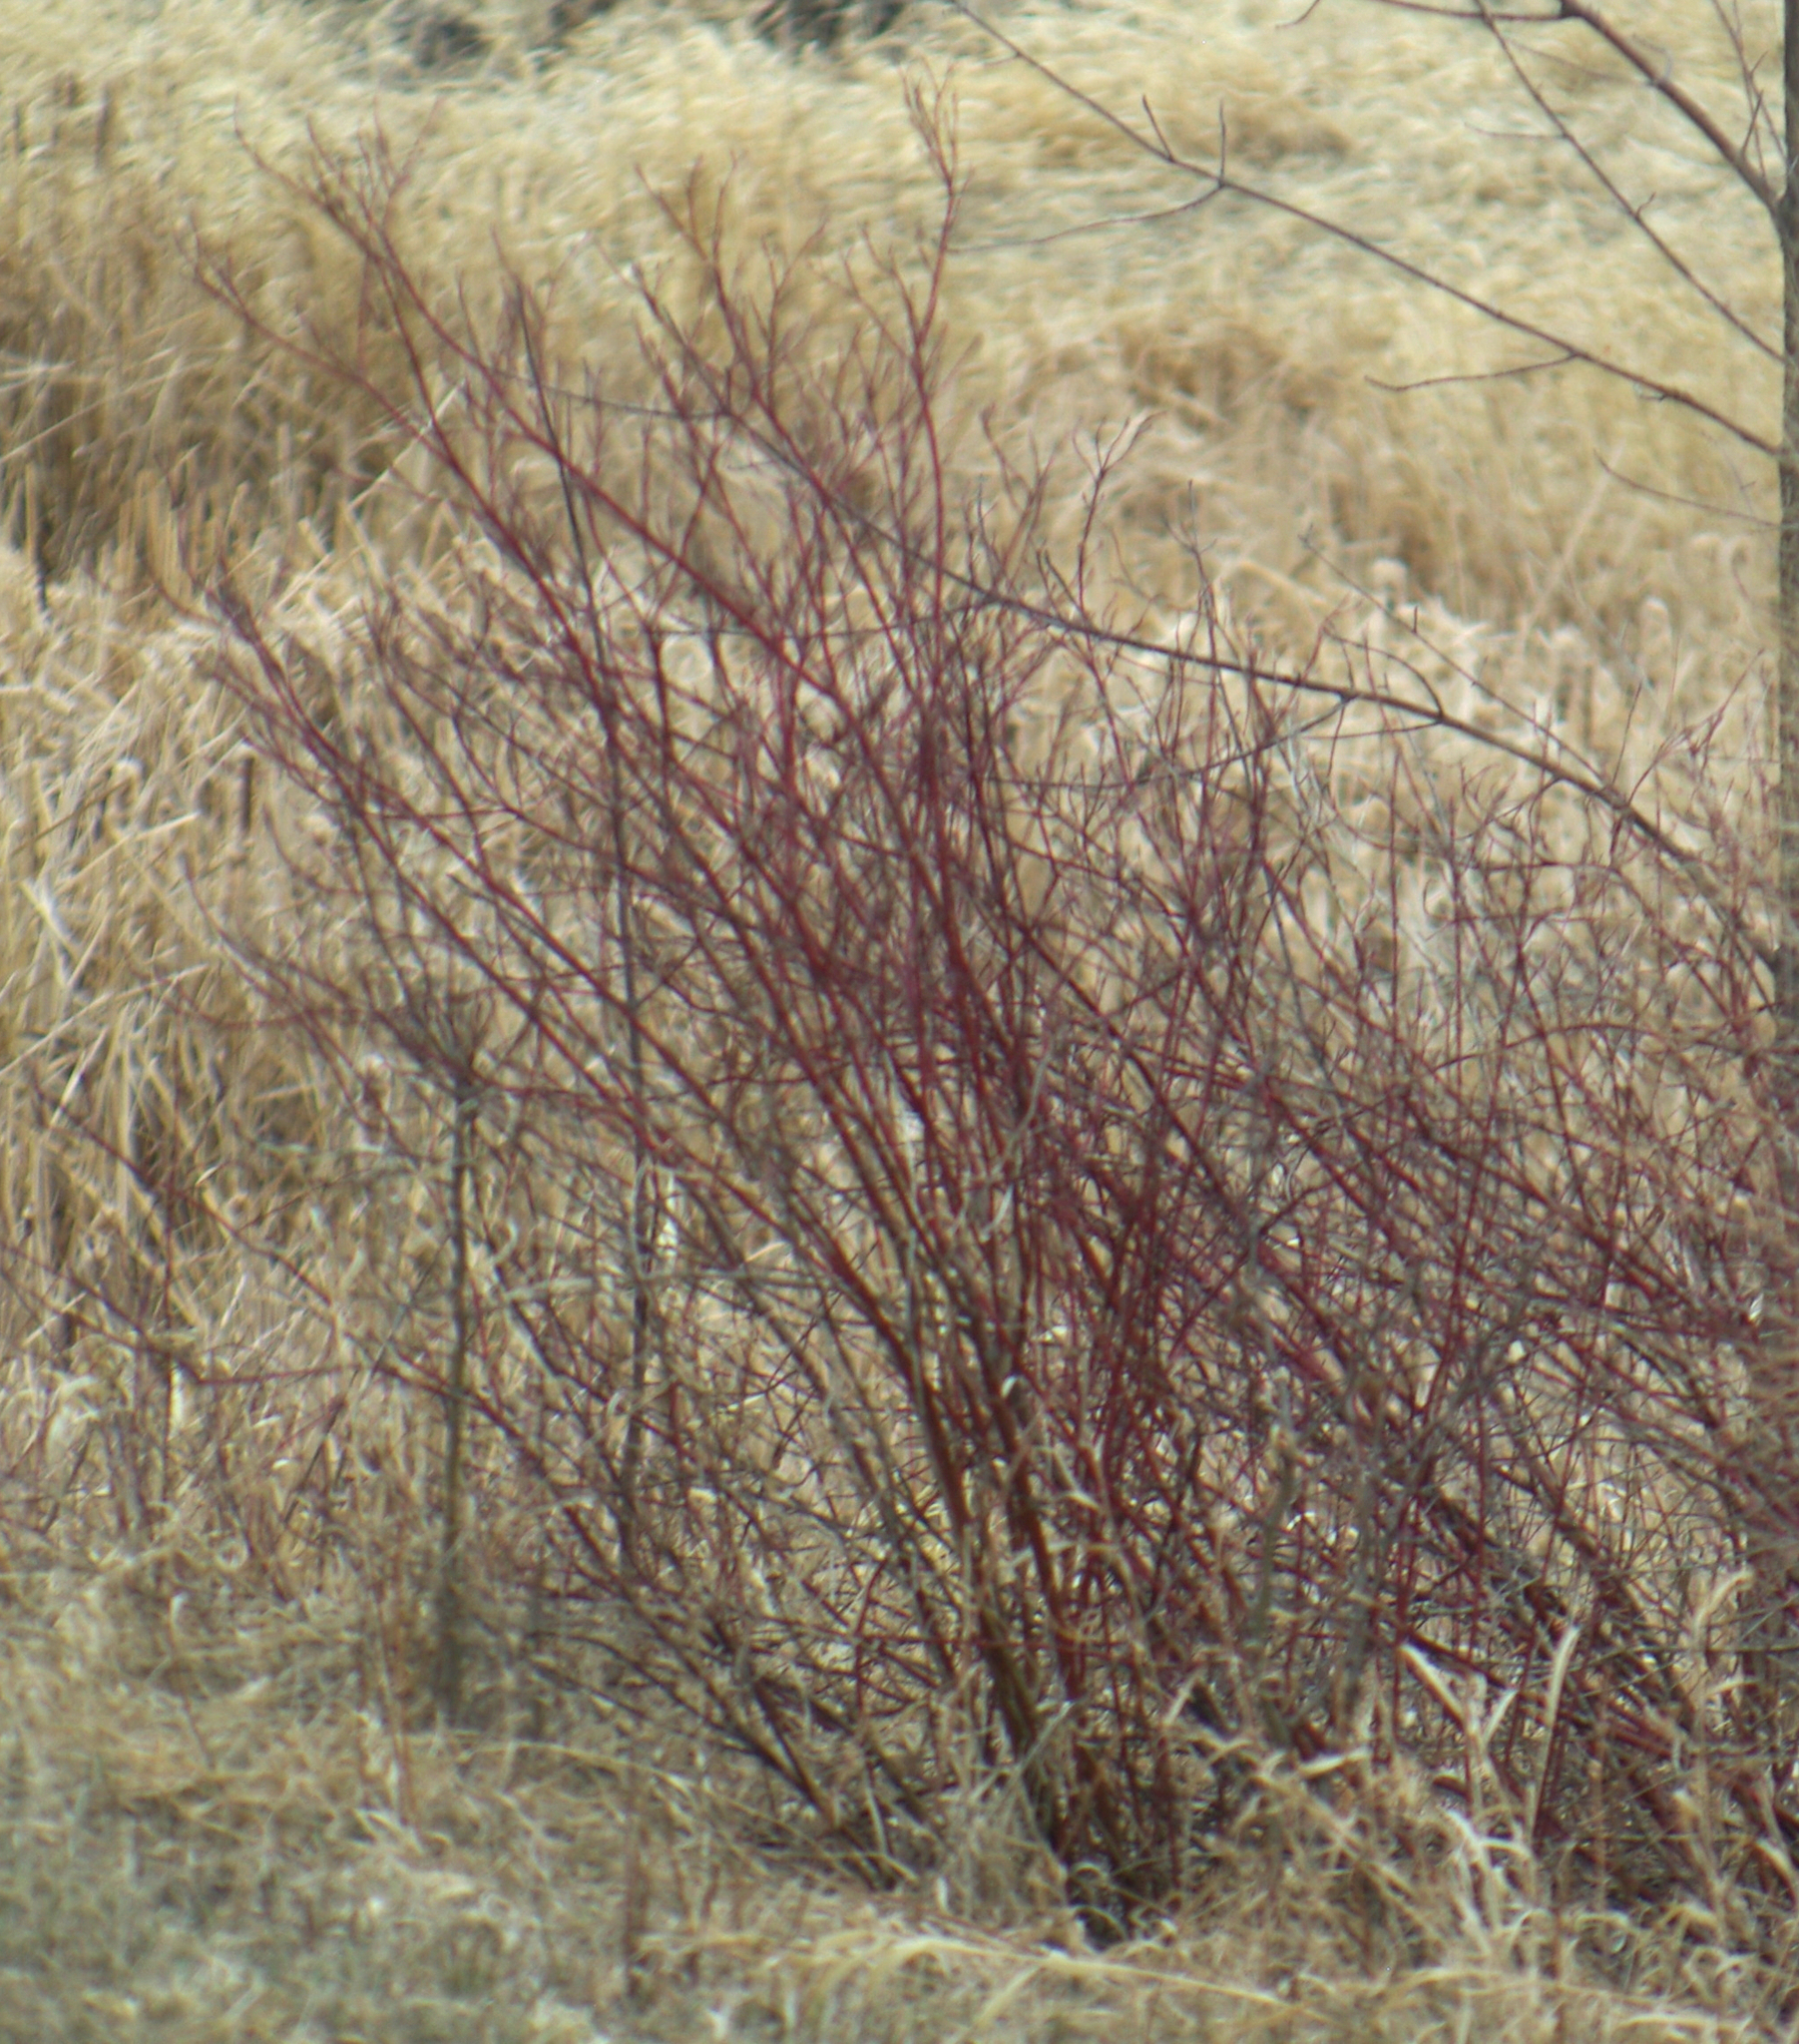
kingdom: Plantae
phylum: Tracheophyta
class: Magnoliopsida
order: Cornales
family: Cornaceae
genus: Cornus
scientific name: Cornus sericea
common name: Red-osier dogwood
